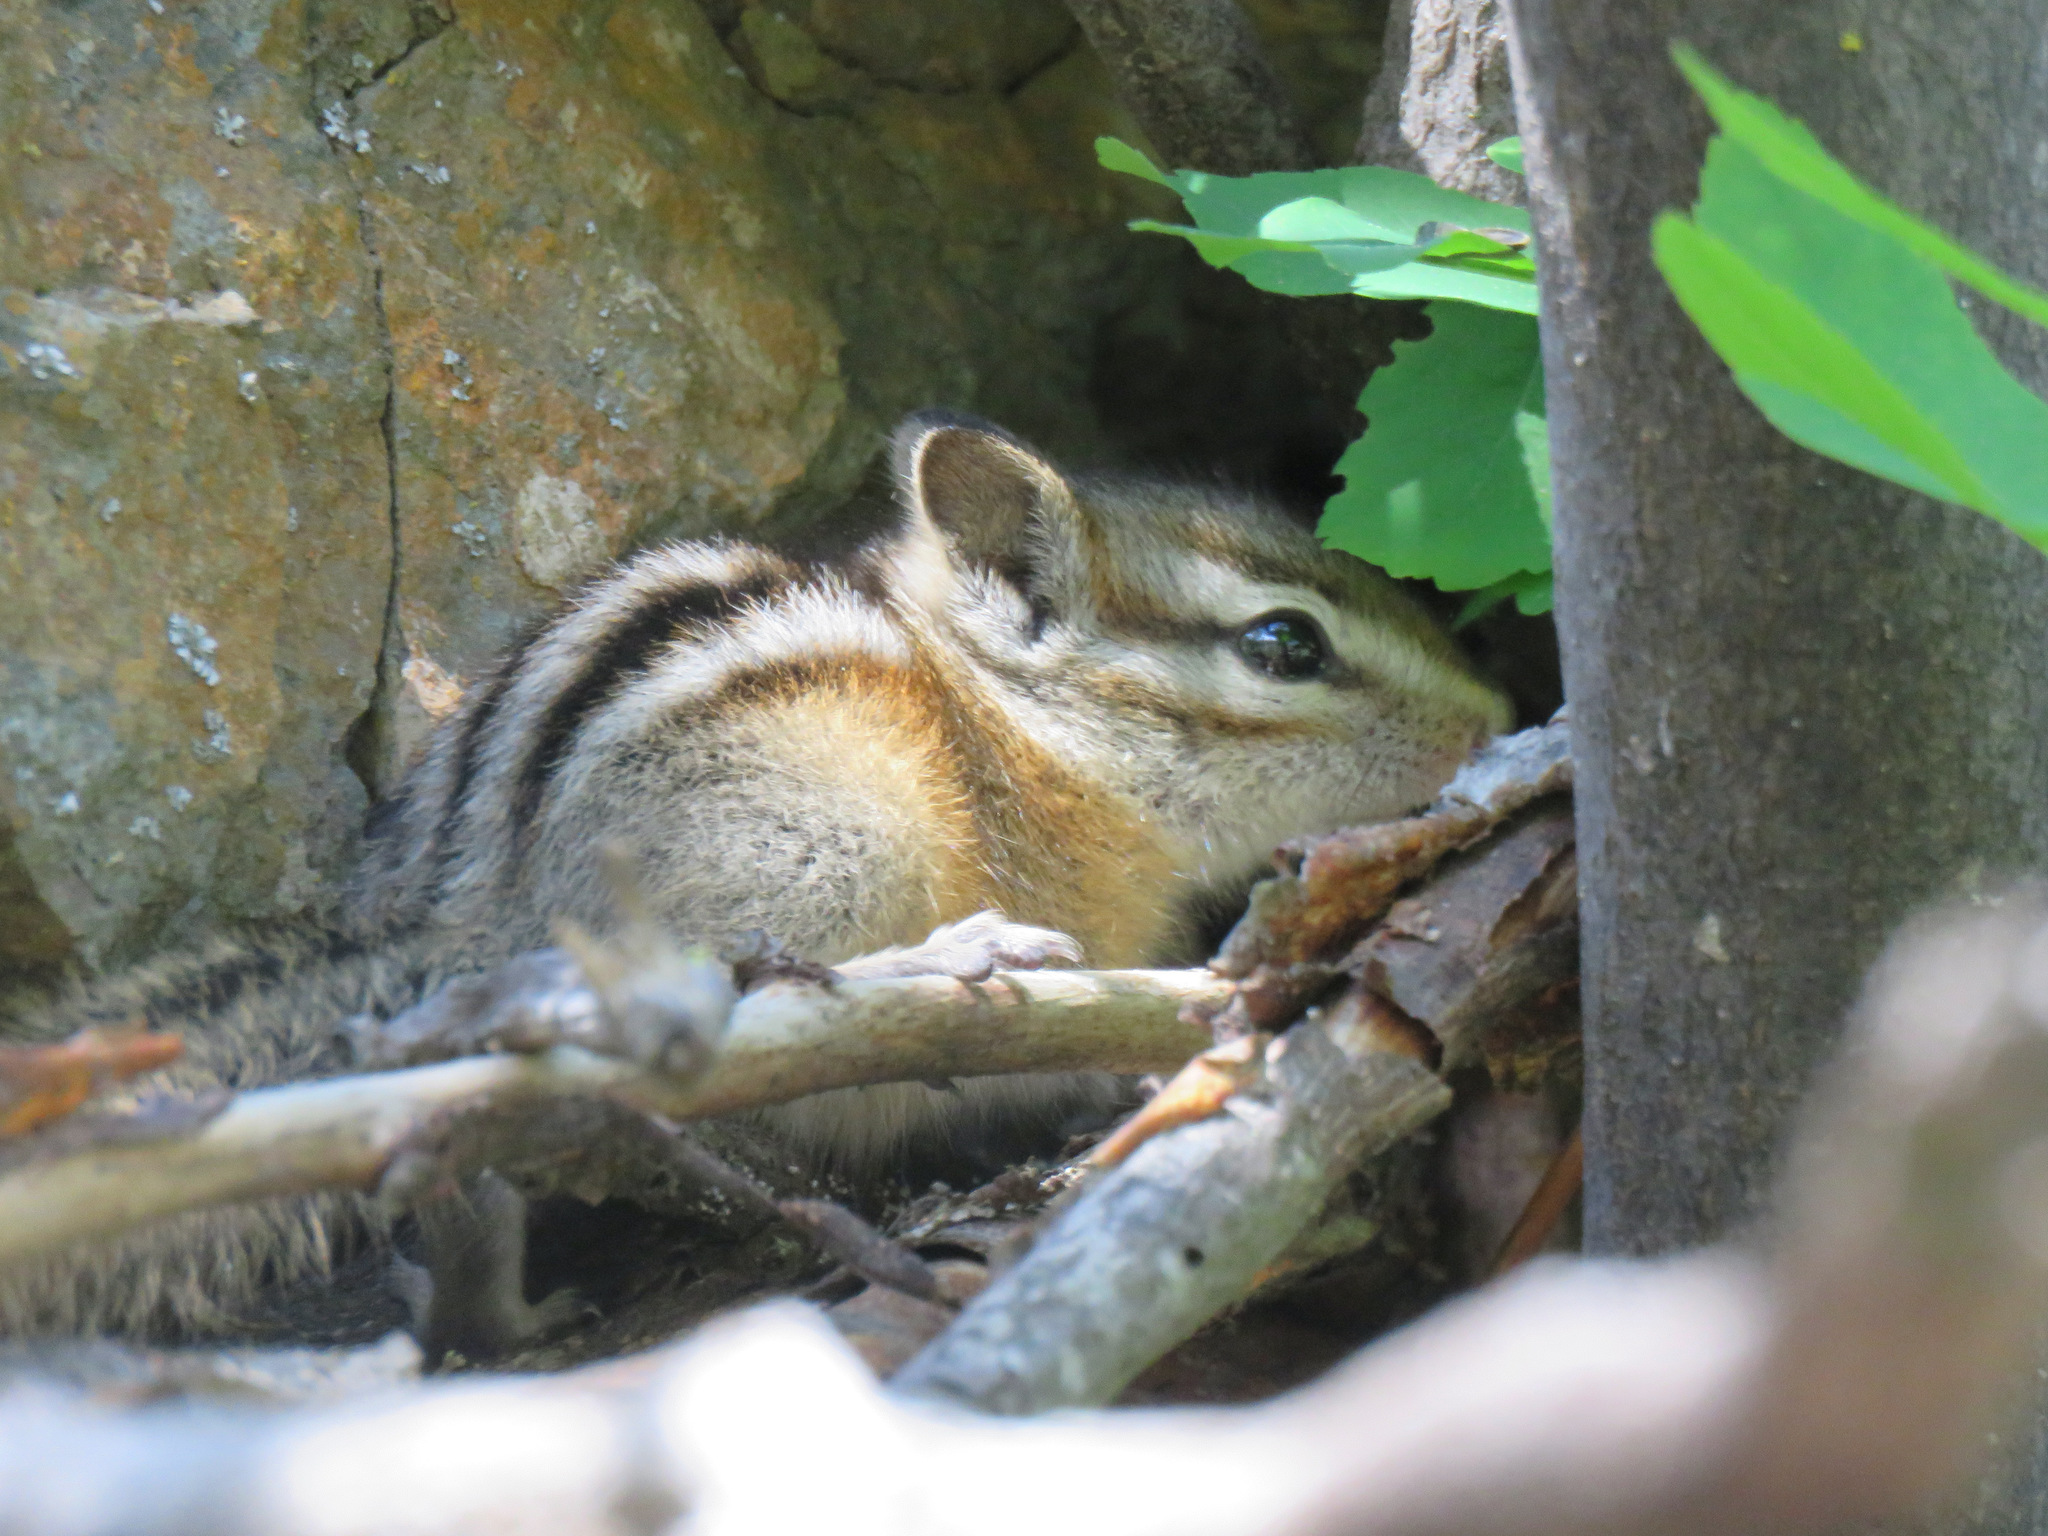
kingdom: Animalia
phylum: Chordata
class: Mammalia
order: Rodentia
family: Sciuridae
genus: Tamias
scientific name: Tamias amoenus
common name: Yellow-pine chipmunk
